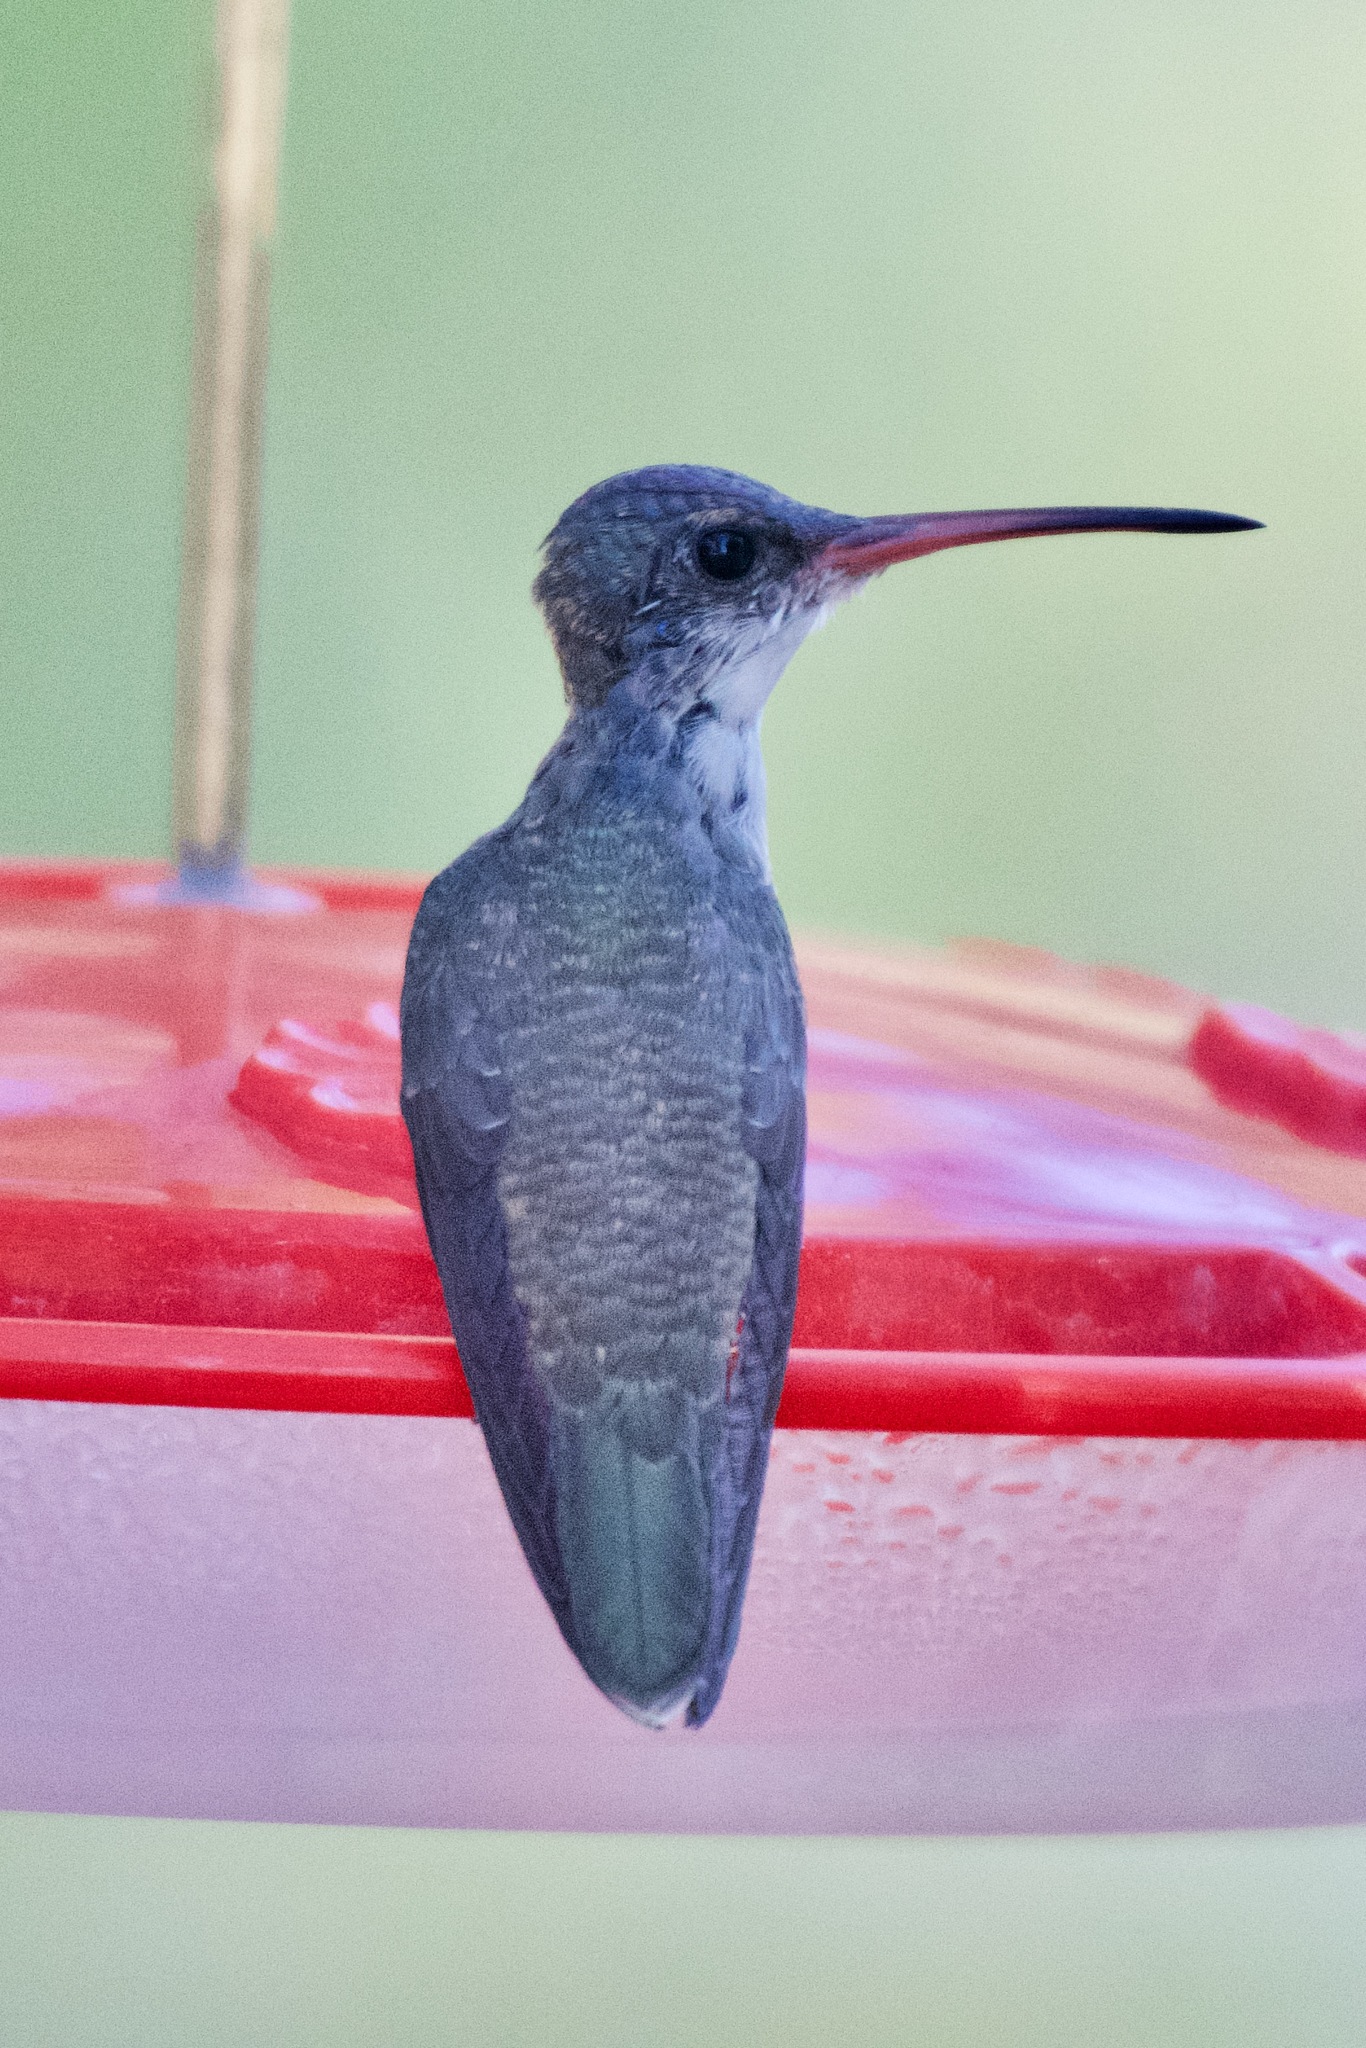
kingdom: Animalia
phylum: Chordata
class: Aves
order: Apodiformes
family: Trochilidae
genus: Leucolia
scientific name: Leucolia violiceps
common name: Violet-crowned hummingbird
